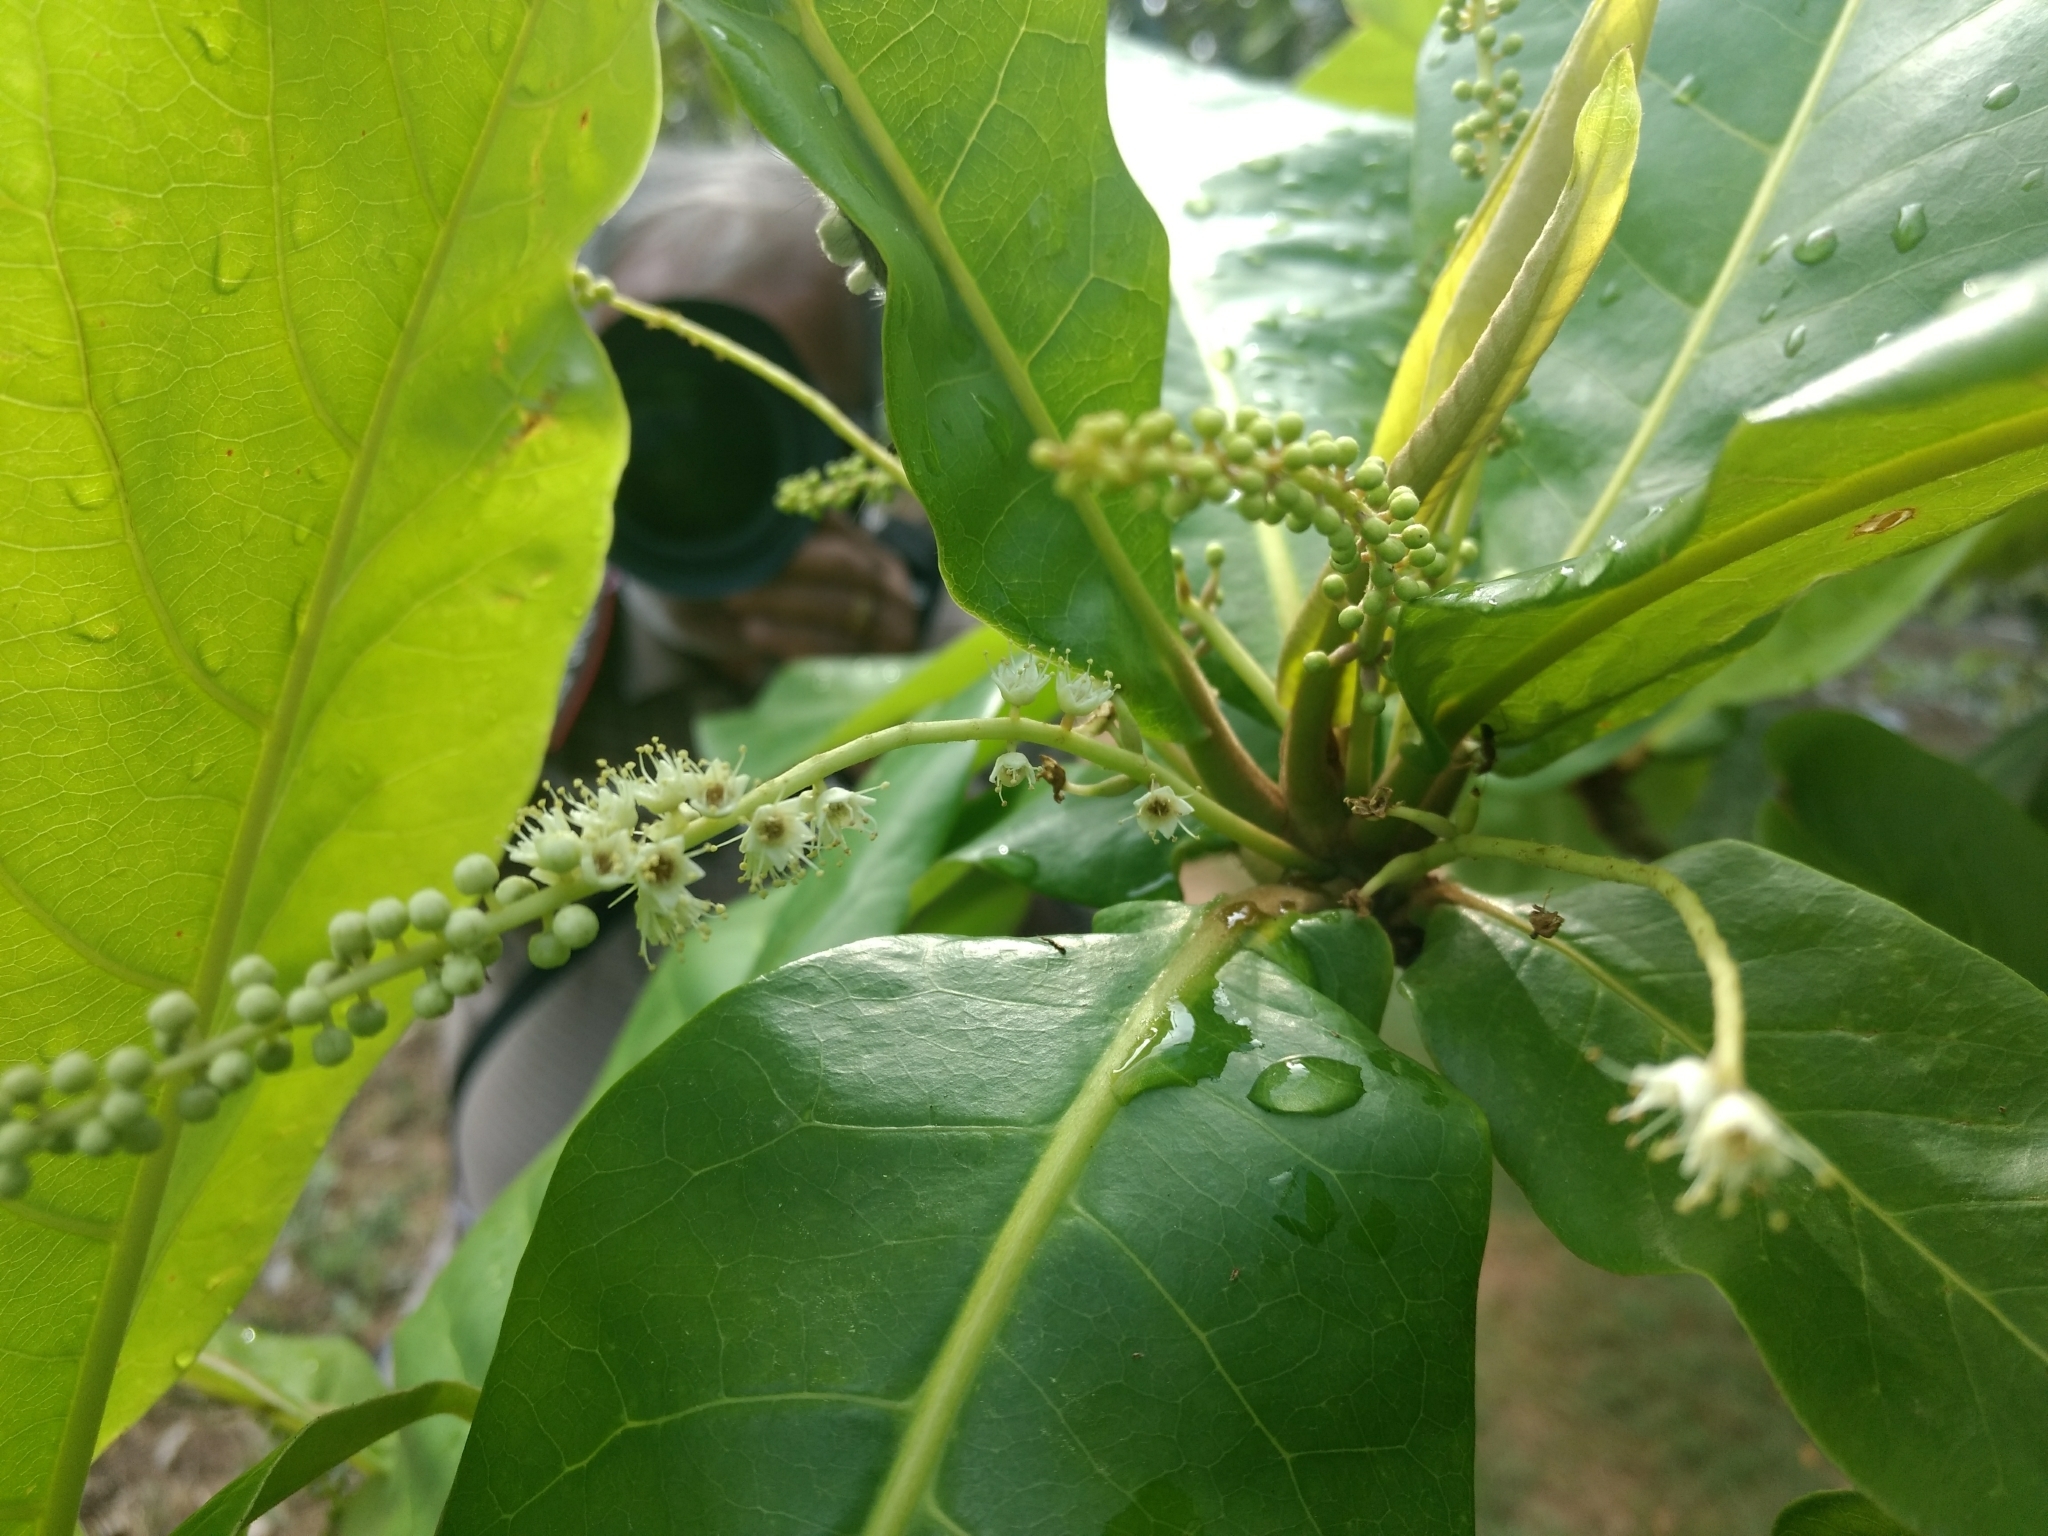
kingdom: Plantae
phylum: Tracheophyta
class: Magnoliopsida
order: Myrtales
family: Combretaceae
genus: Terminalia
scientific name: Terminalia catappa
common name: Tropical almond
